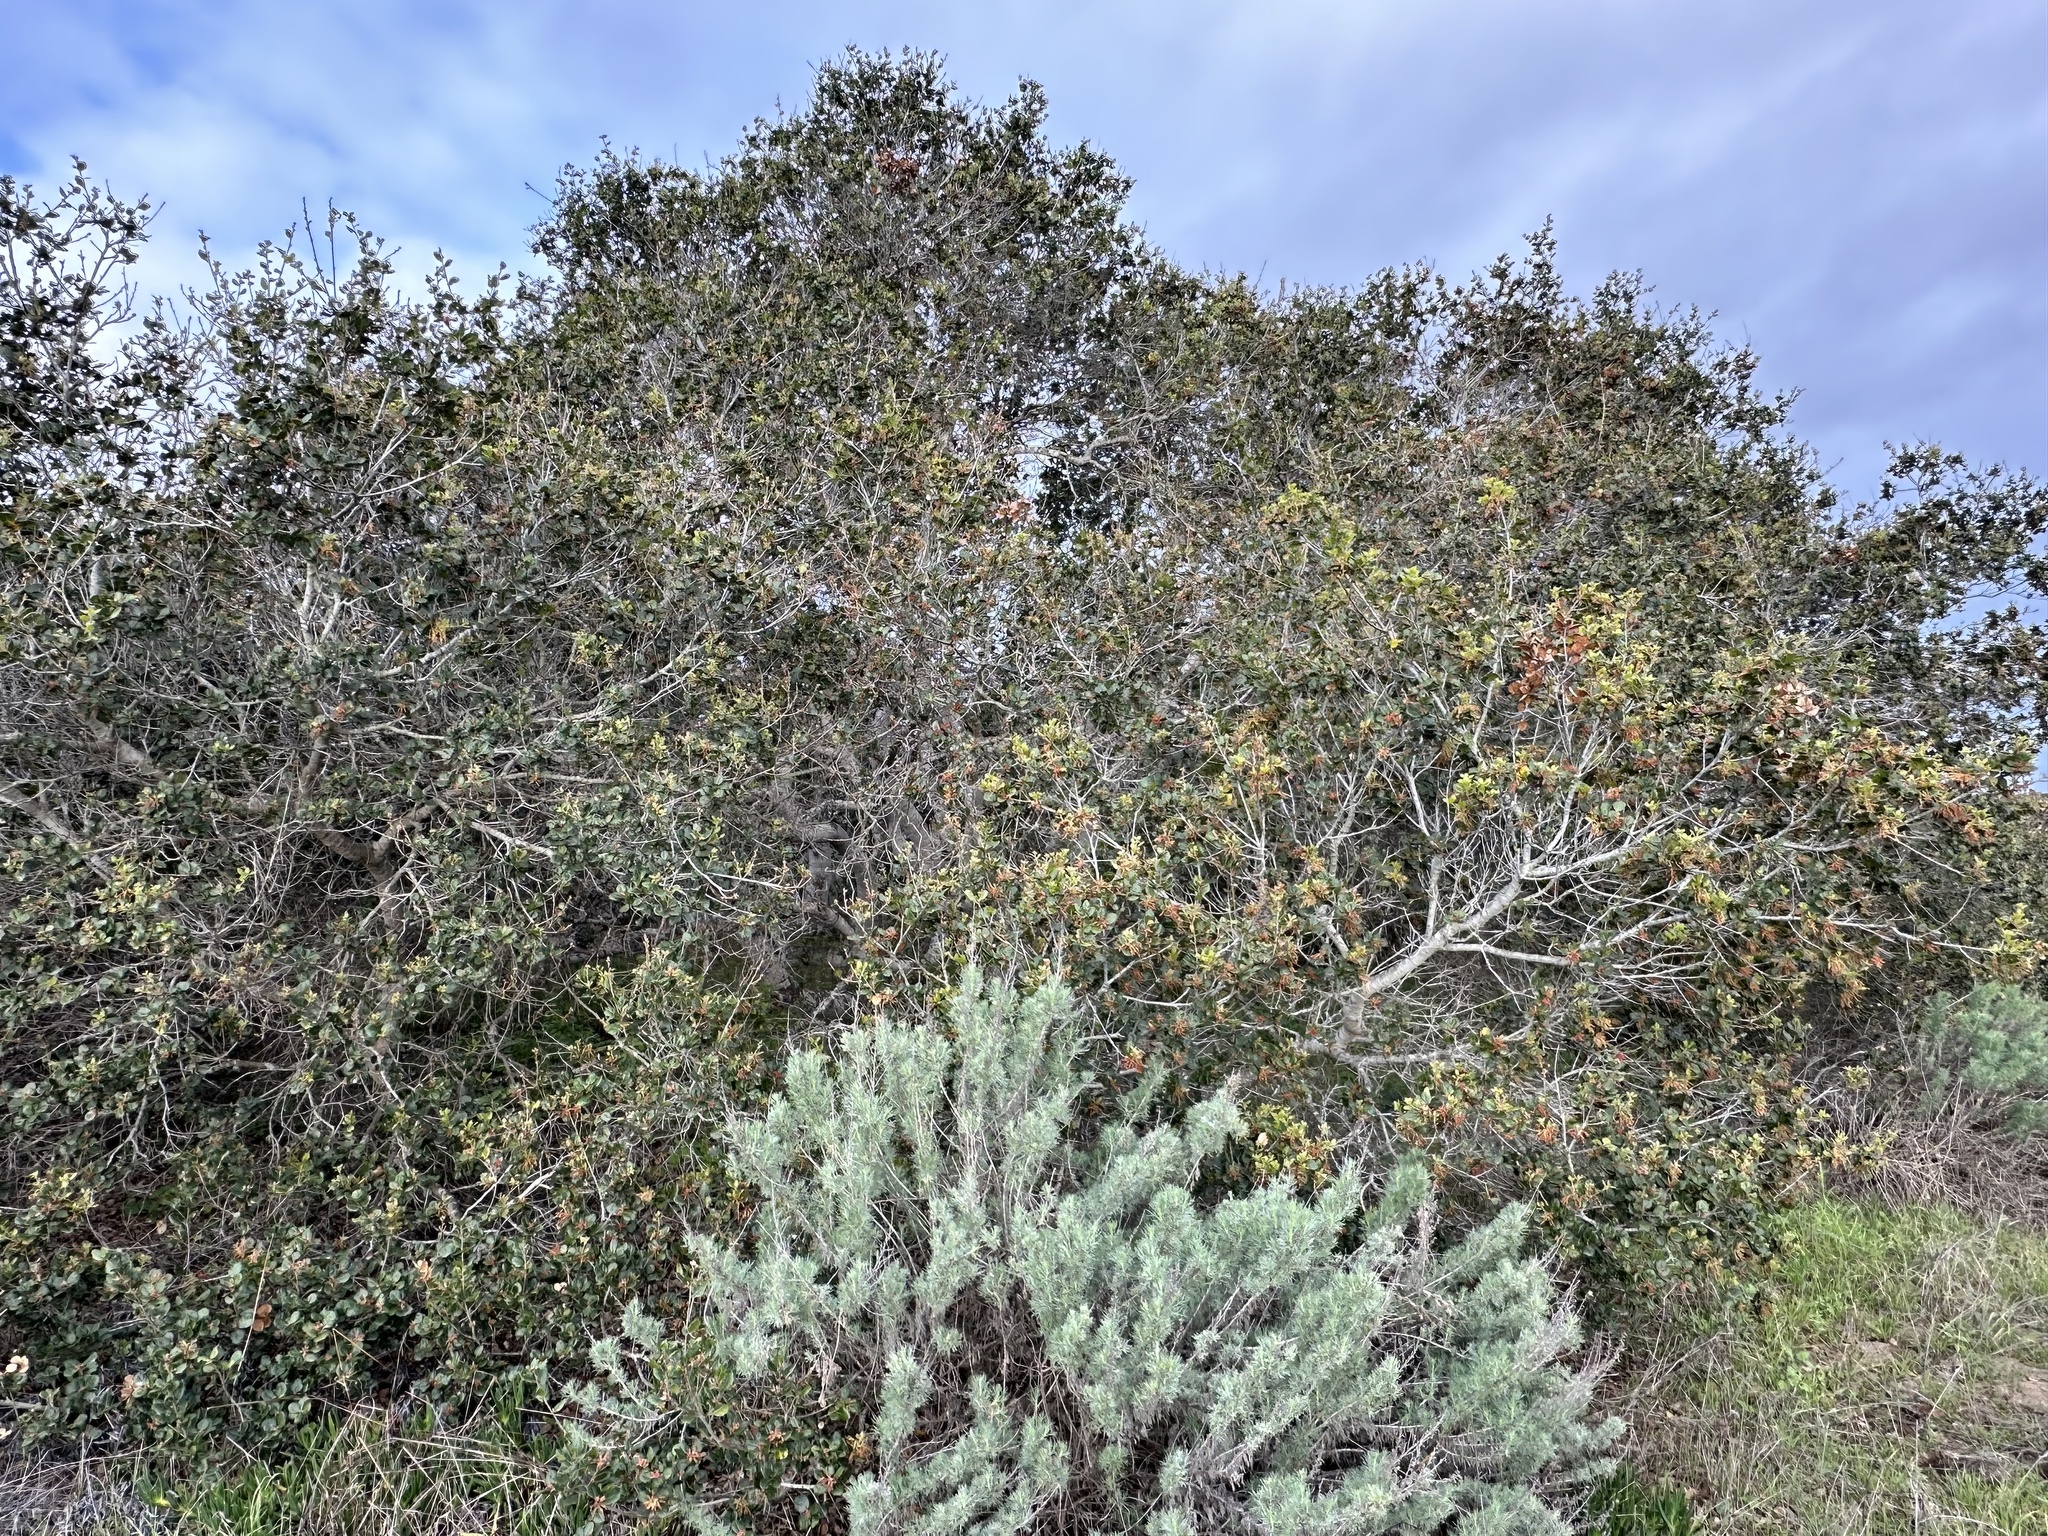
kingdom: Plantae
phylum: Tracheophyta
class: Magnoliopsida
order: Fagales
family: Fagaceae
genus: Quercus
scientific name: Quercus agrifolia
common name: California live oak
